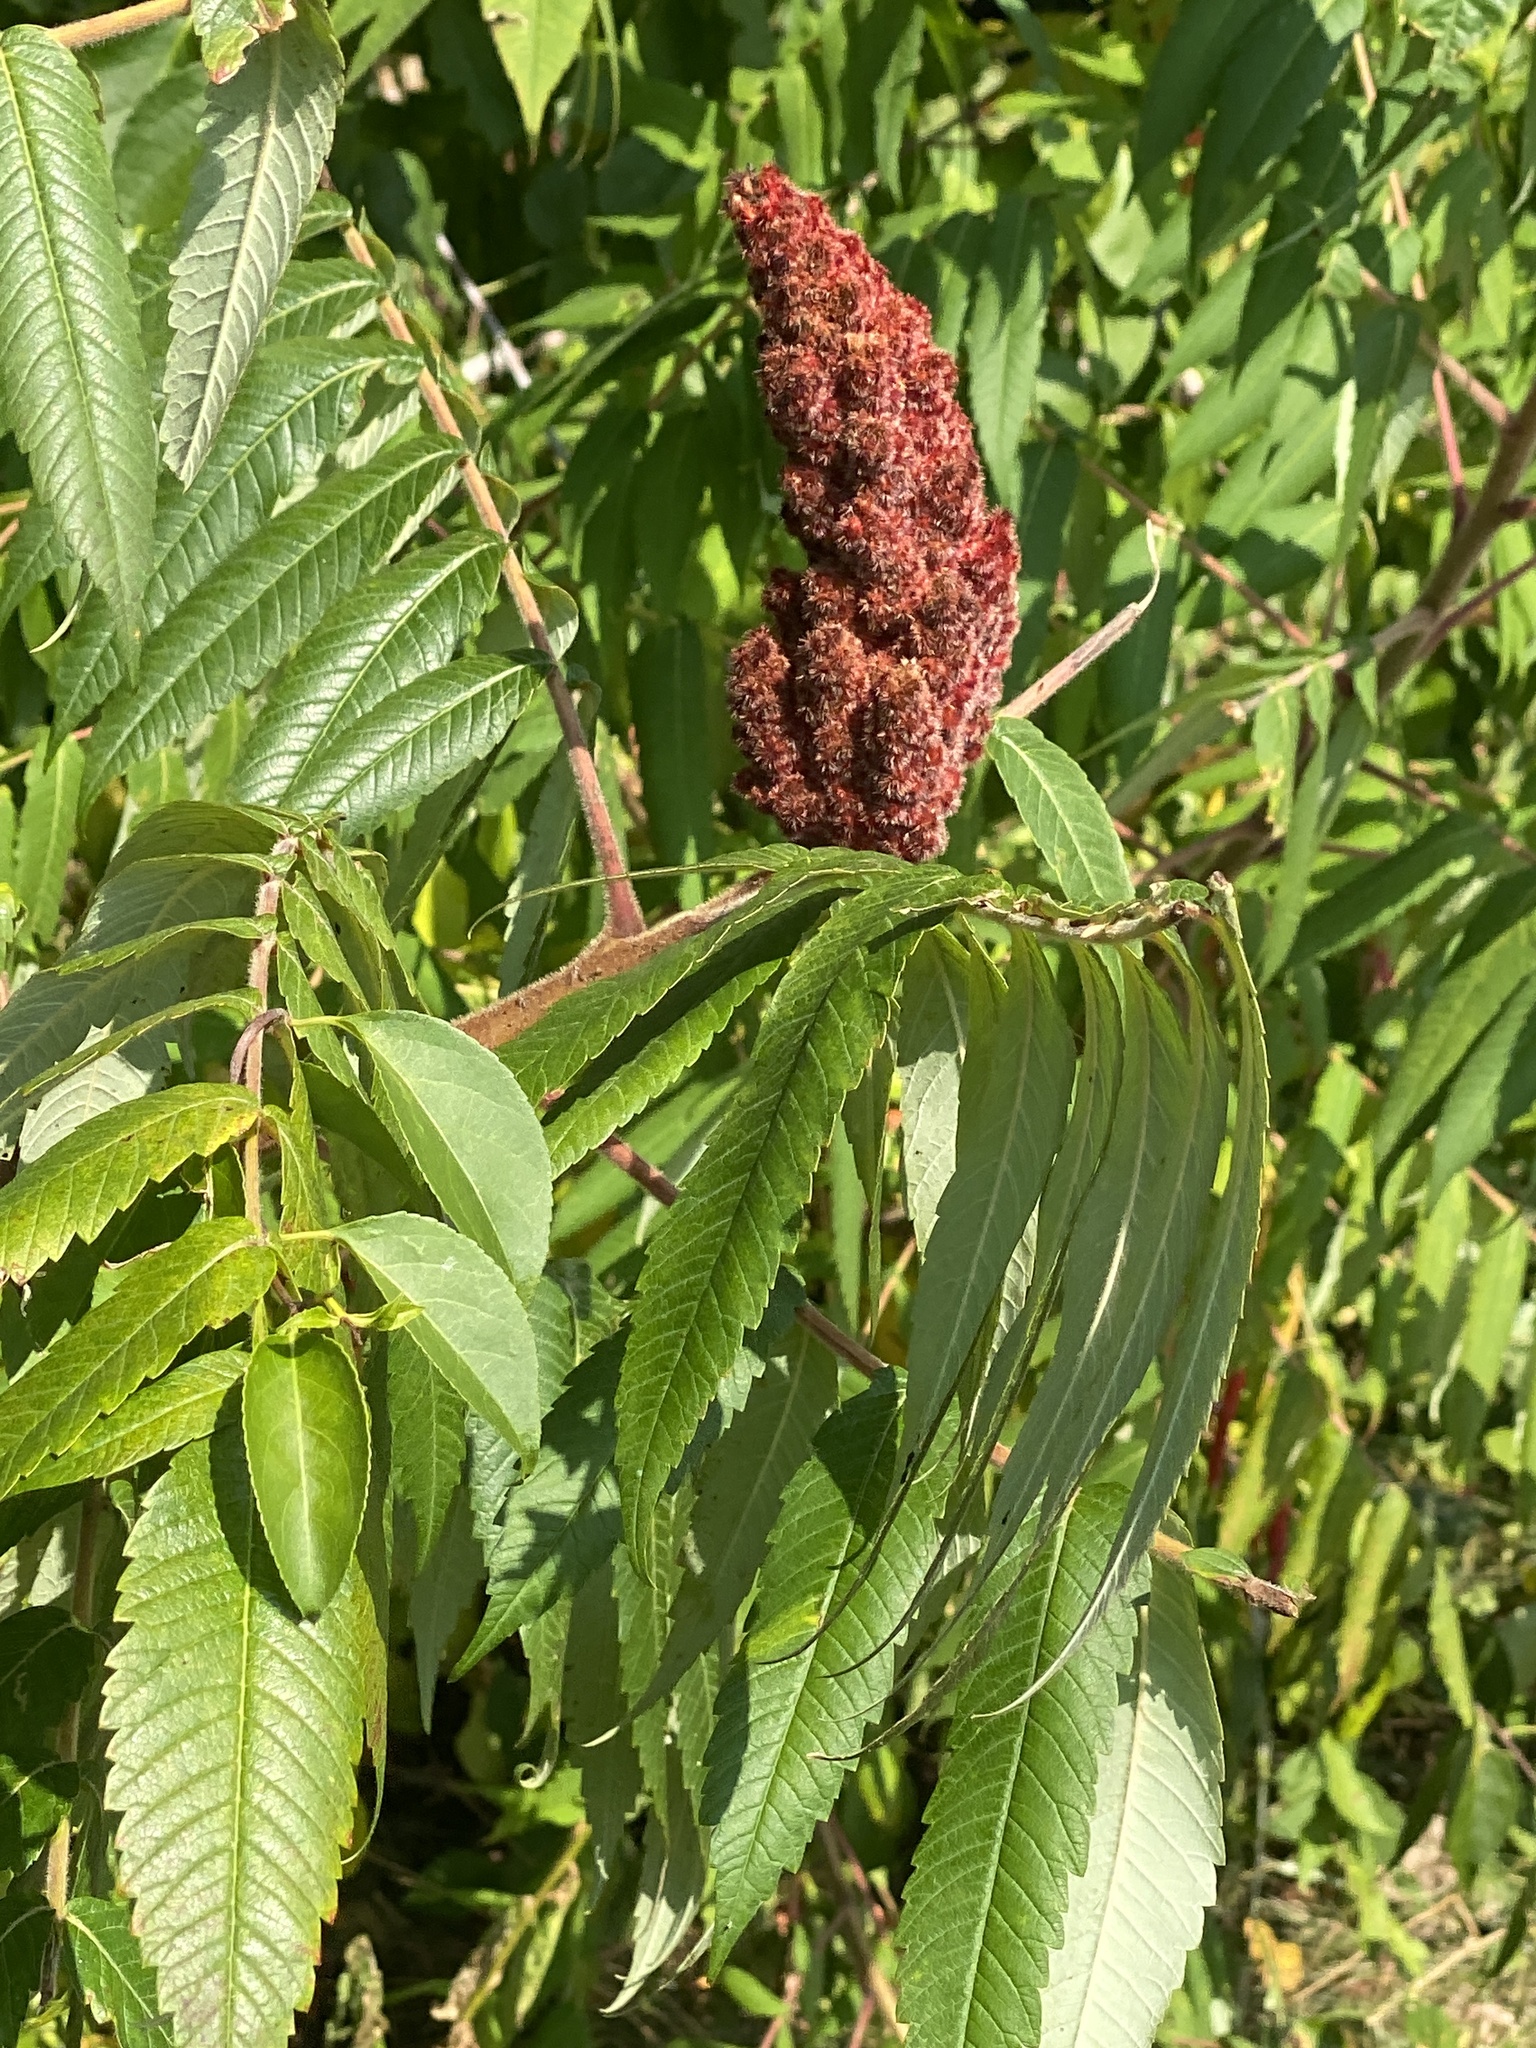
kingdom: Plantae
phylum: Tracheophyta
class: Magnoliopsida
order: Sapindales
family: Anacardiaceae
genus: Rhus
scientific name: Rhus typhina
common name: Staghorn sumac
